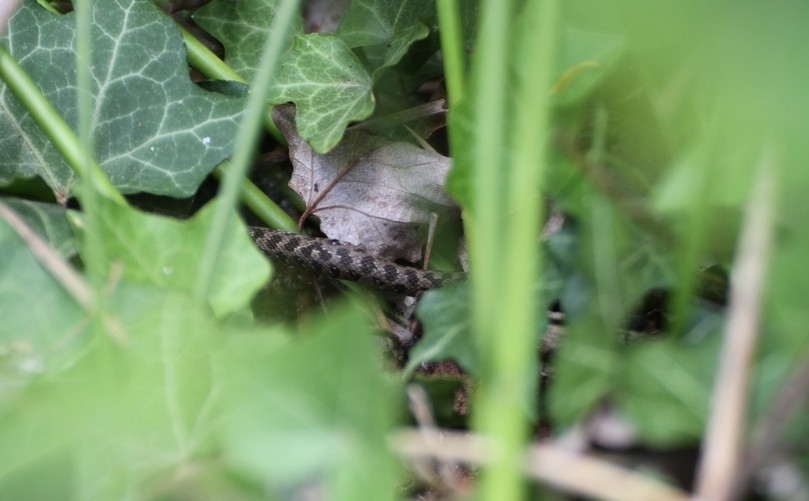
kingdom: Animalia
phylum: Chordata
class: Squamata
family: Colubridae
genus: Natrix
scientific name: Natrix maura
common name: Viperine water snake
